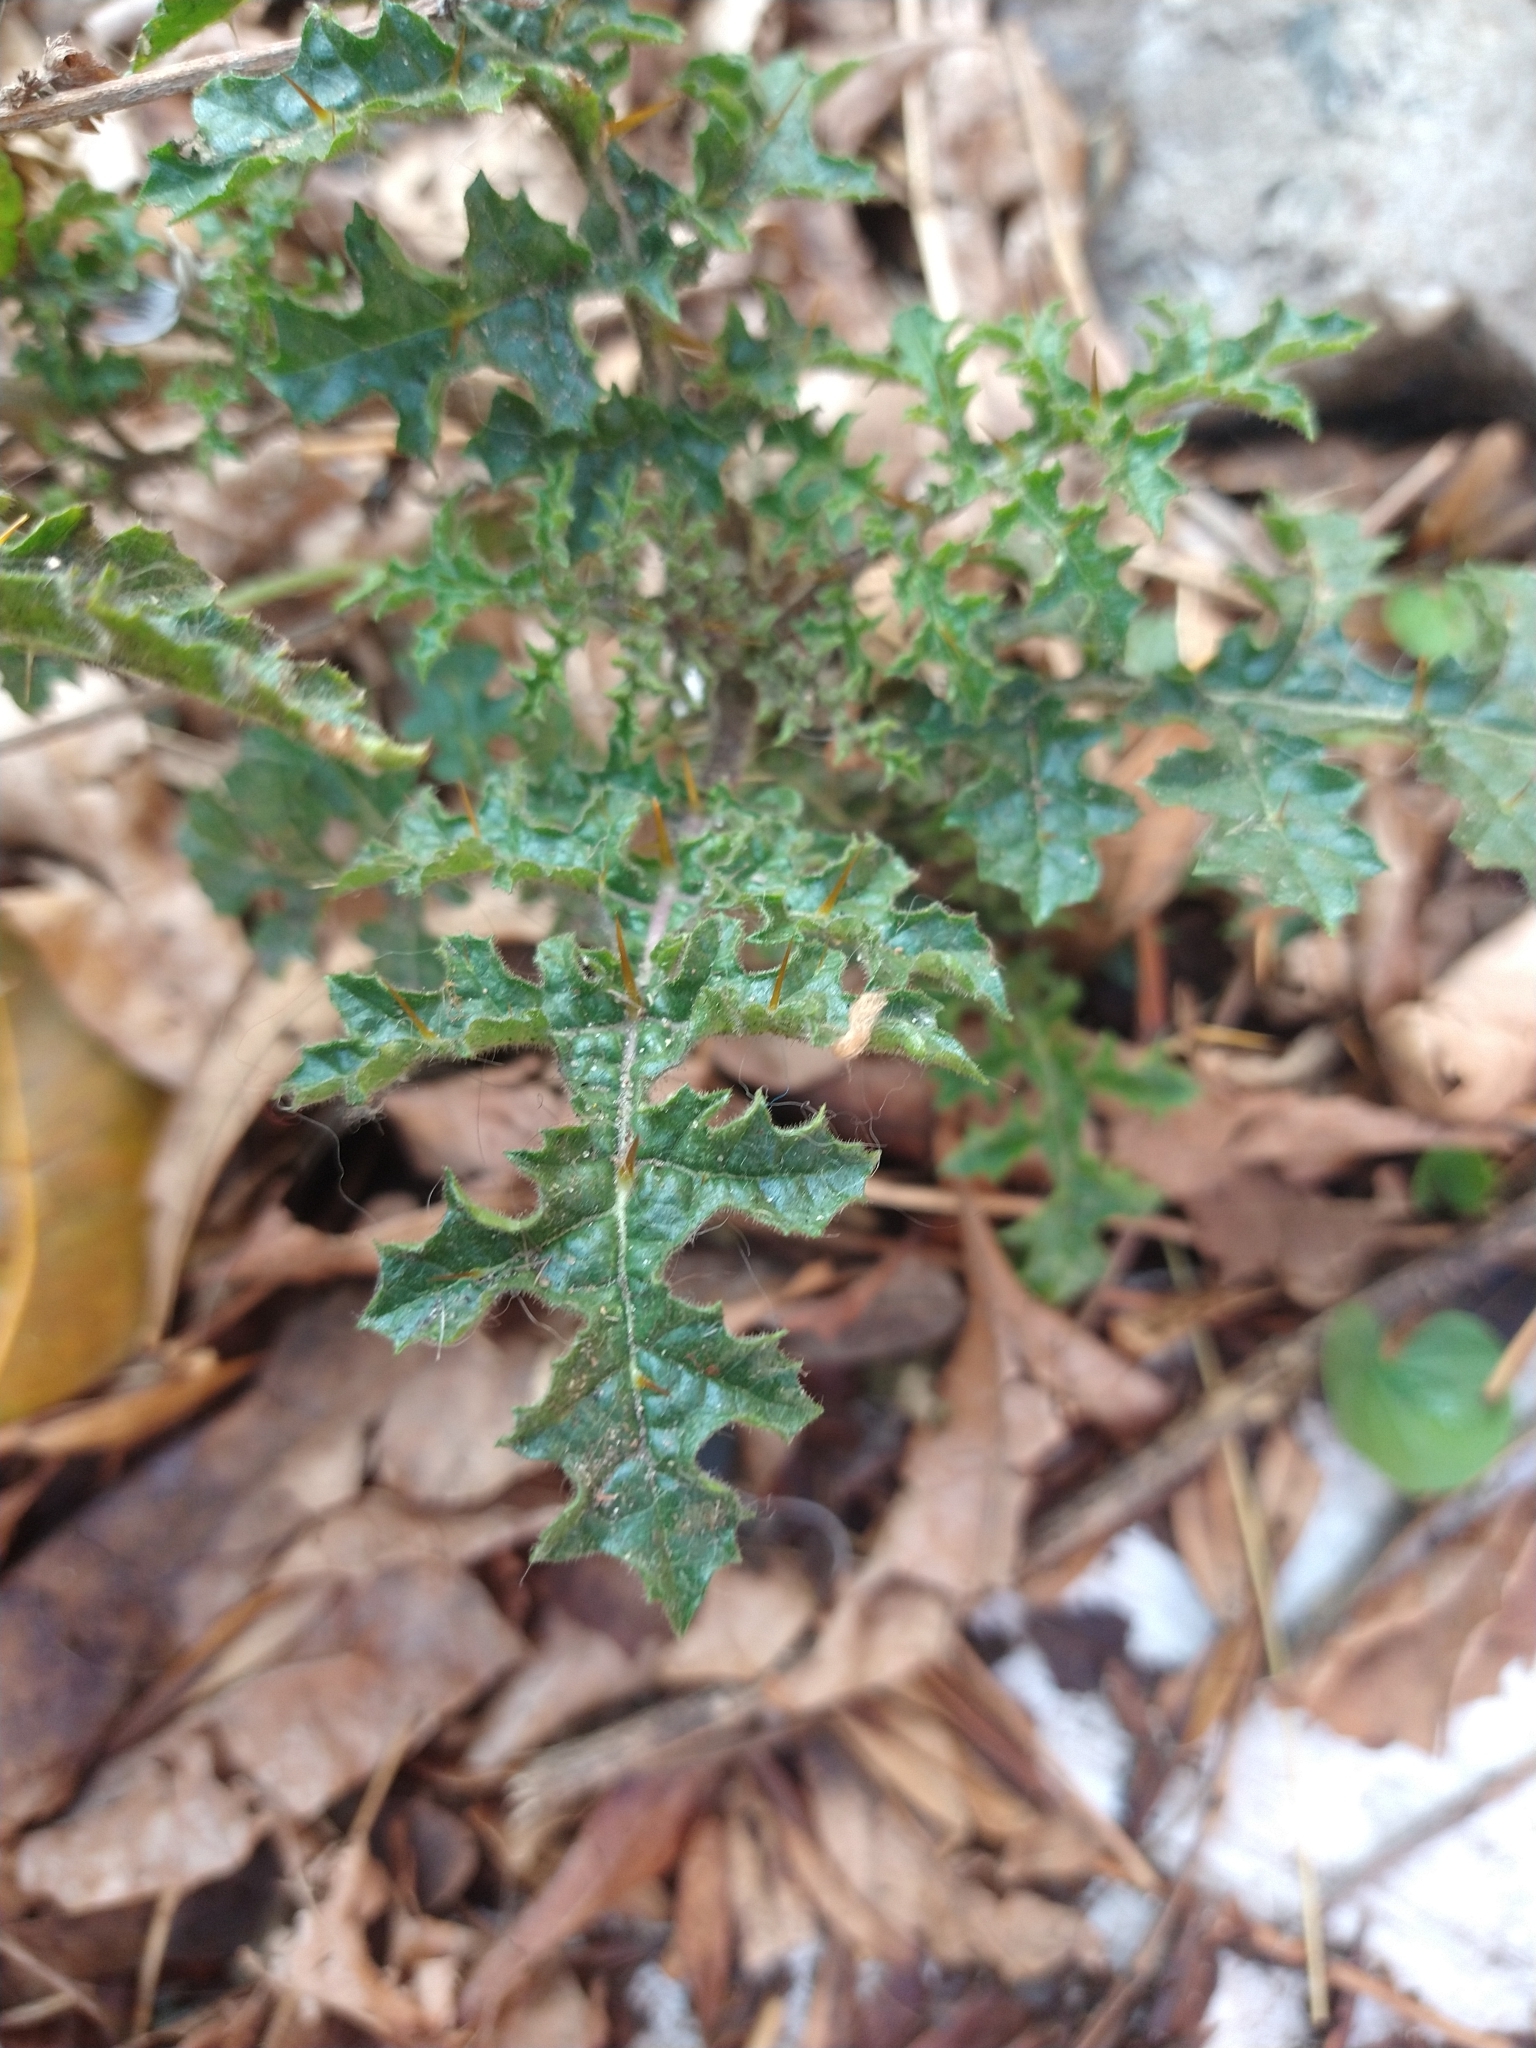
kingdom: Plantae
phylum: Tracheophyta
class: Magnoliopsida
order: Solanales
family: Solanaceae
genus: Solanum
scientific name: Solanum sisymbriifolium
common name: Red buffalo-bur
